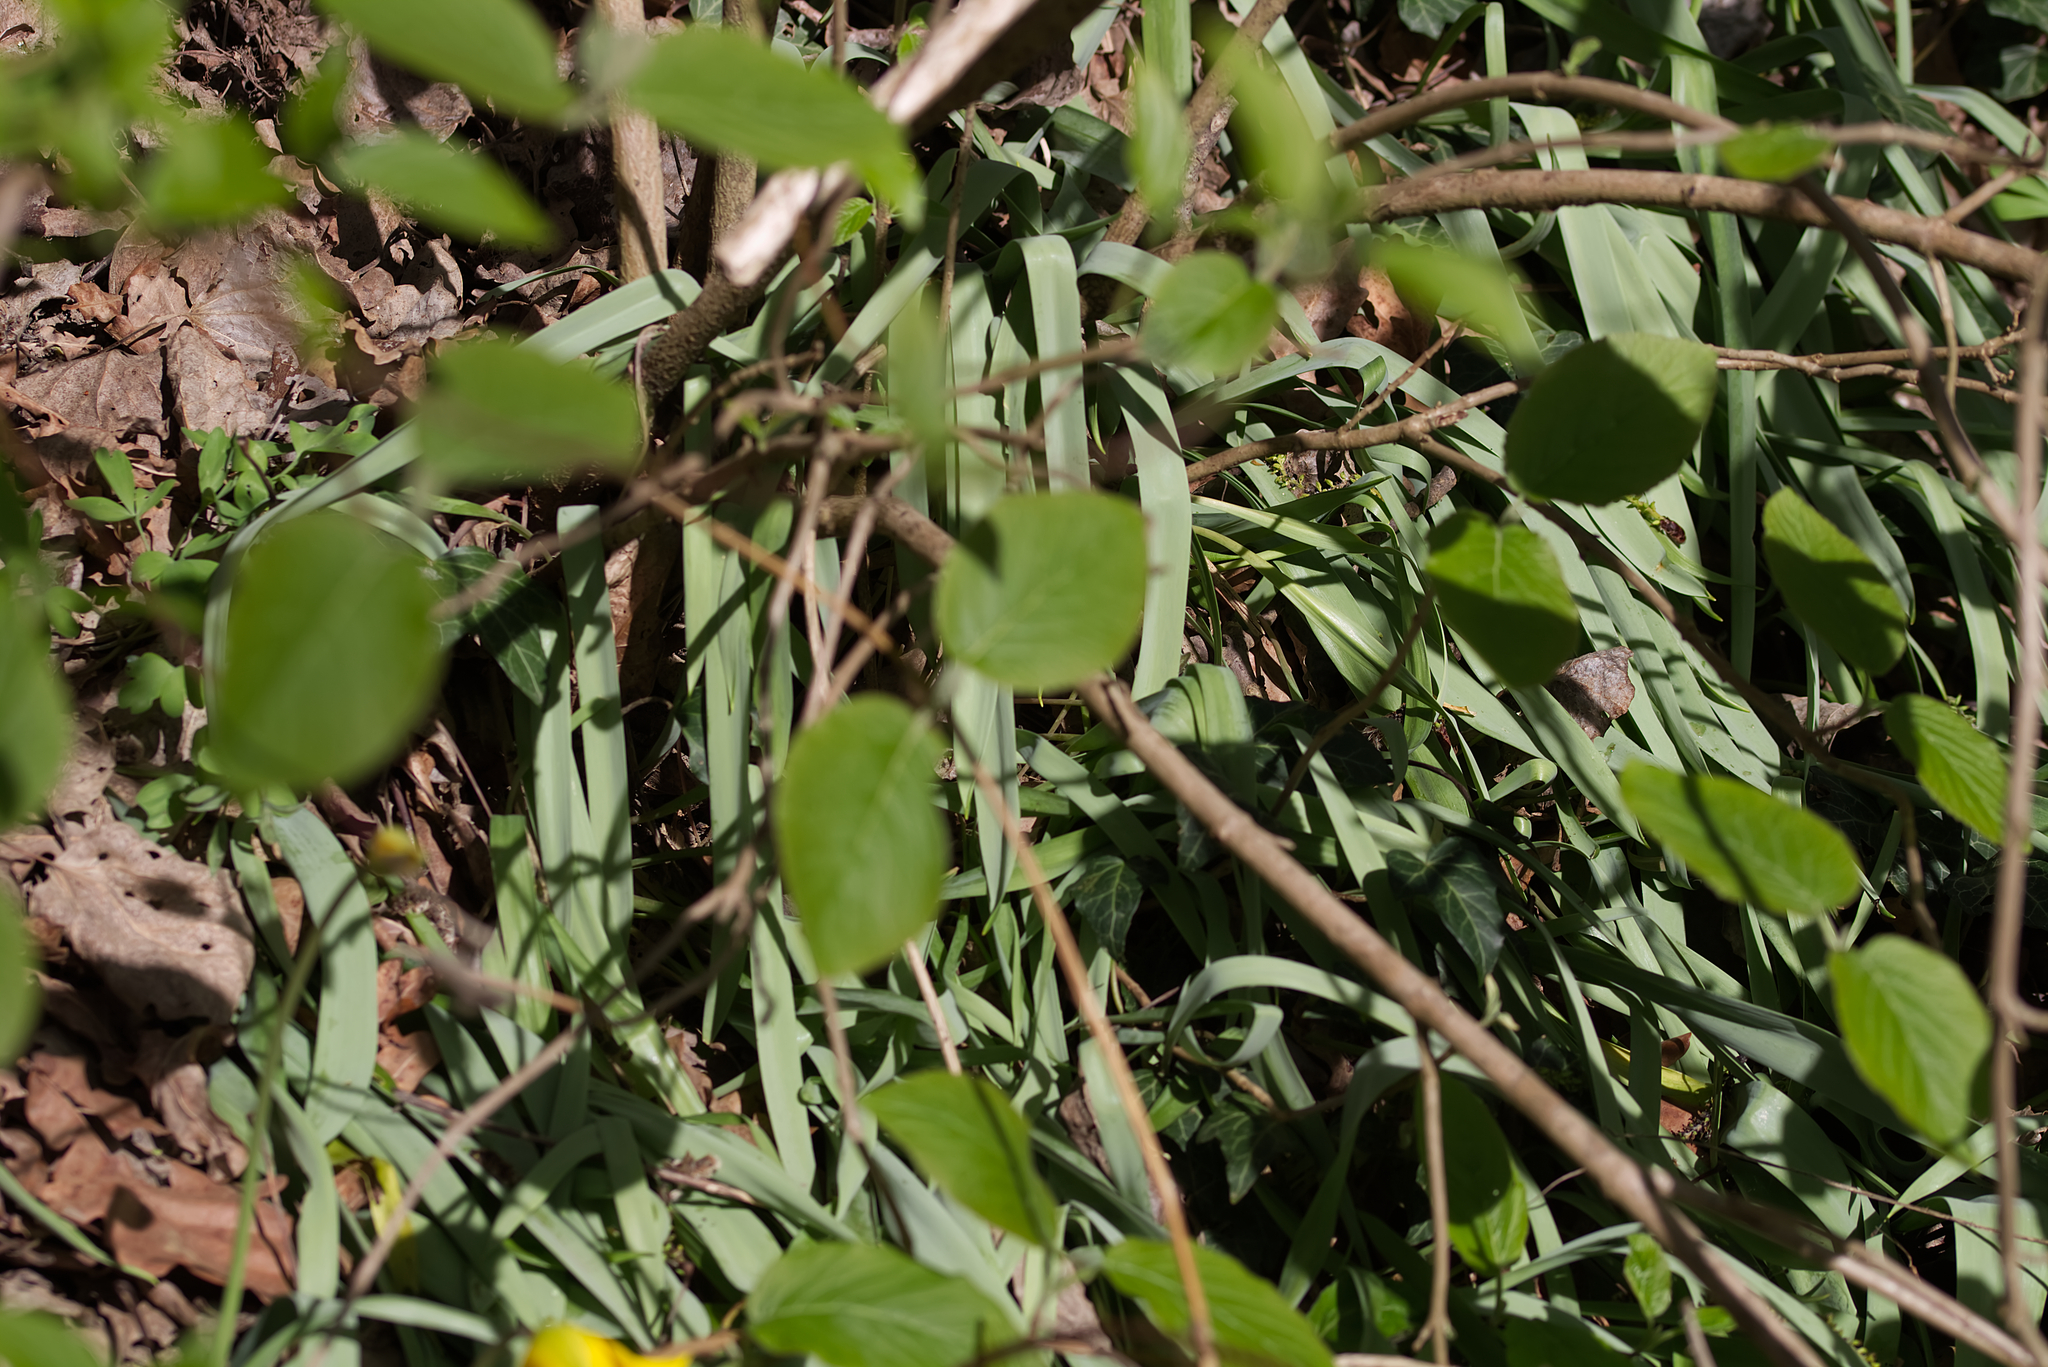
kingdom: Plantae
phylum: Tracheophyta
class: Liliopsida
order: Liliales
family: Liliaceae
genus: Tulipa
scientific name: Tulipa sylvestris
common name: Wild tulip
